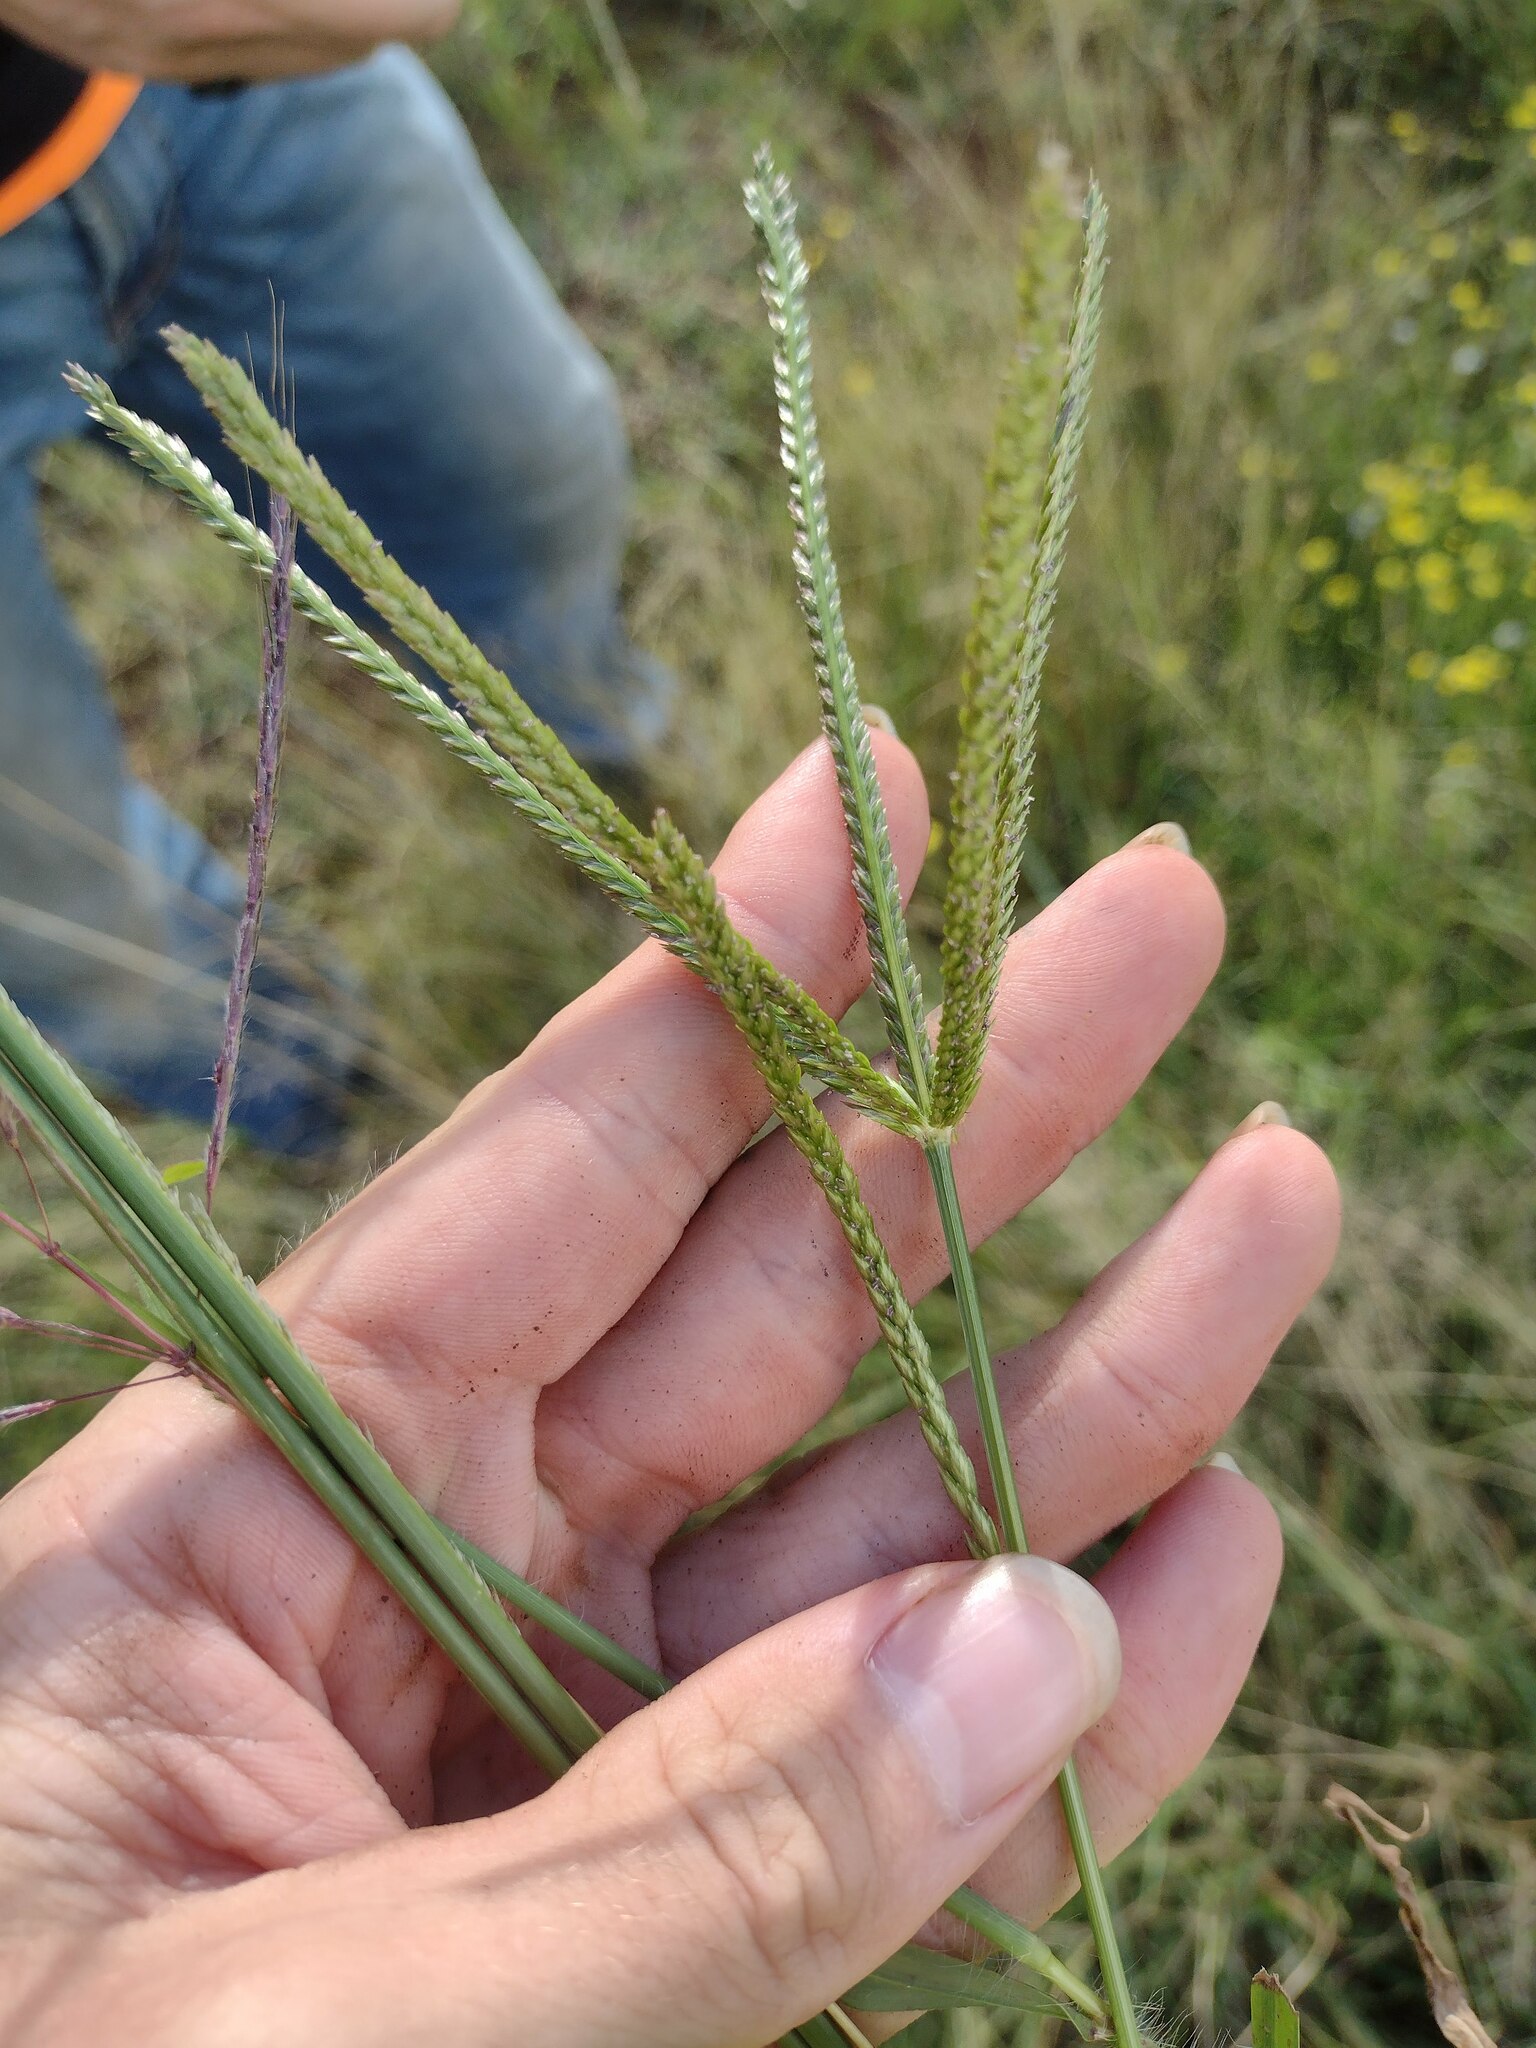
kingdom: Plantae
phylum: Tracheophyta
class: Liliopsida
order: Poales
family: Poaceae
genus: Eleusine
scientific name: Eleusine indica
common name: Yard-grass
